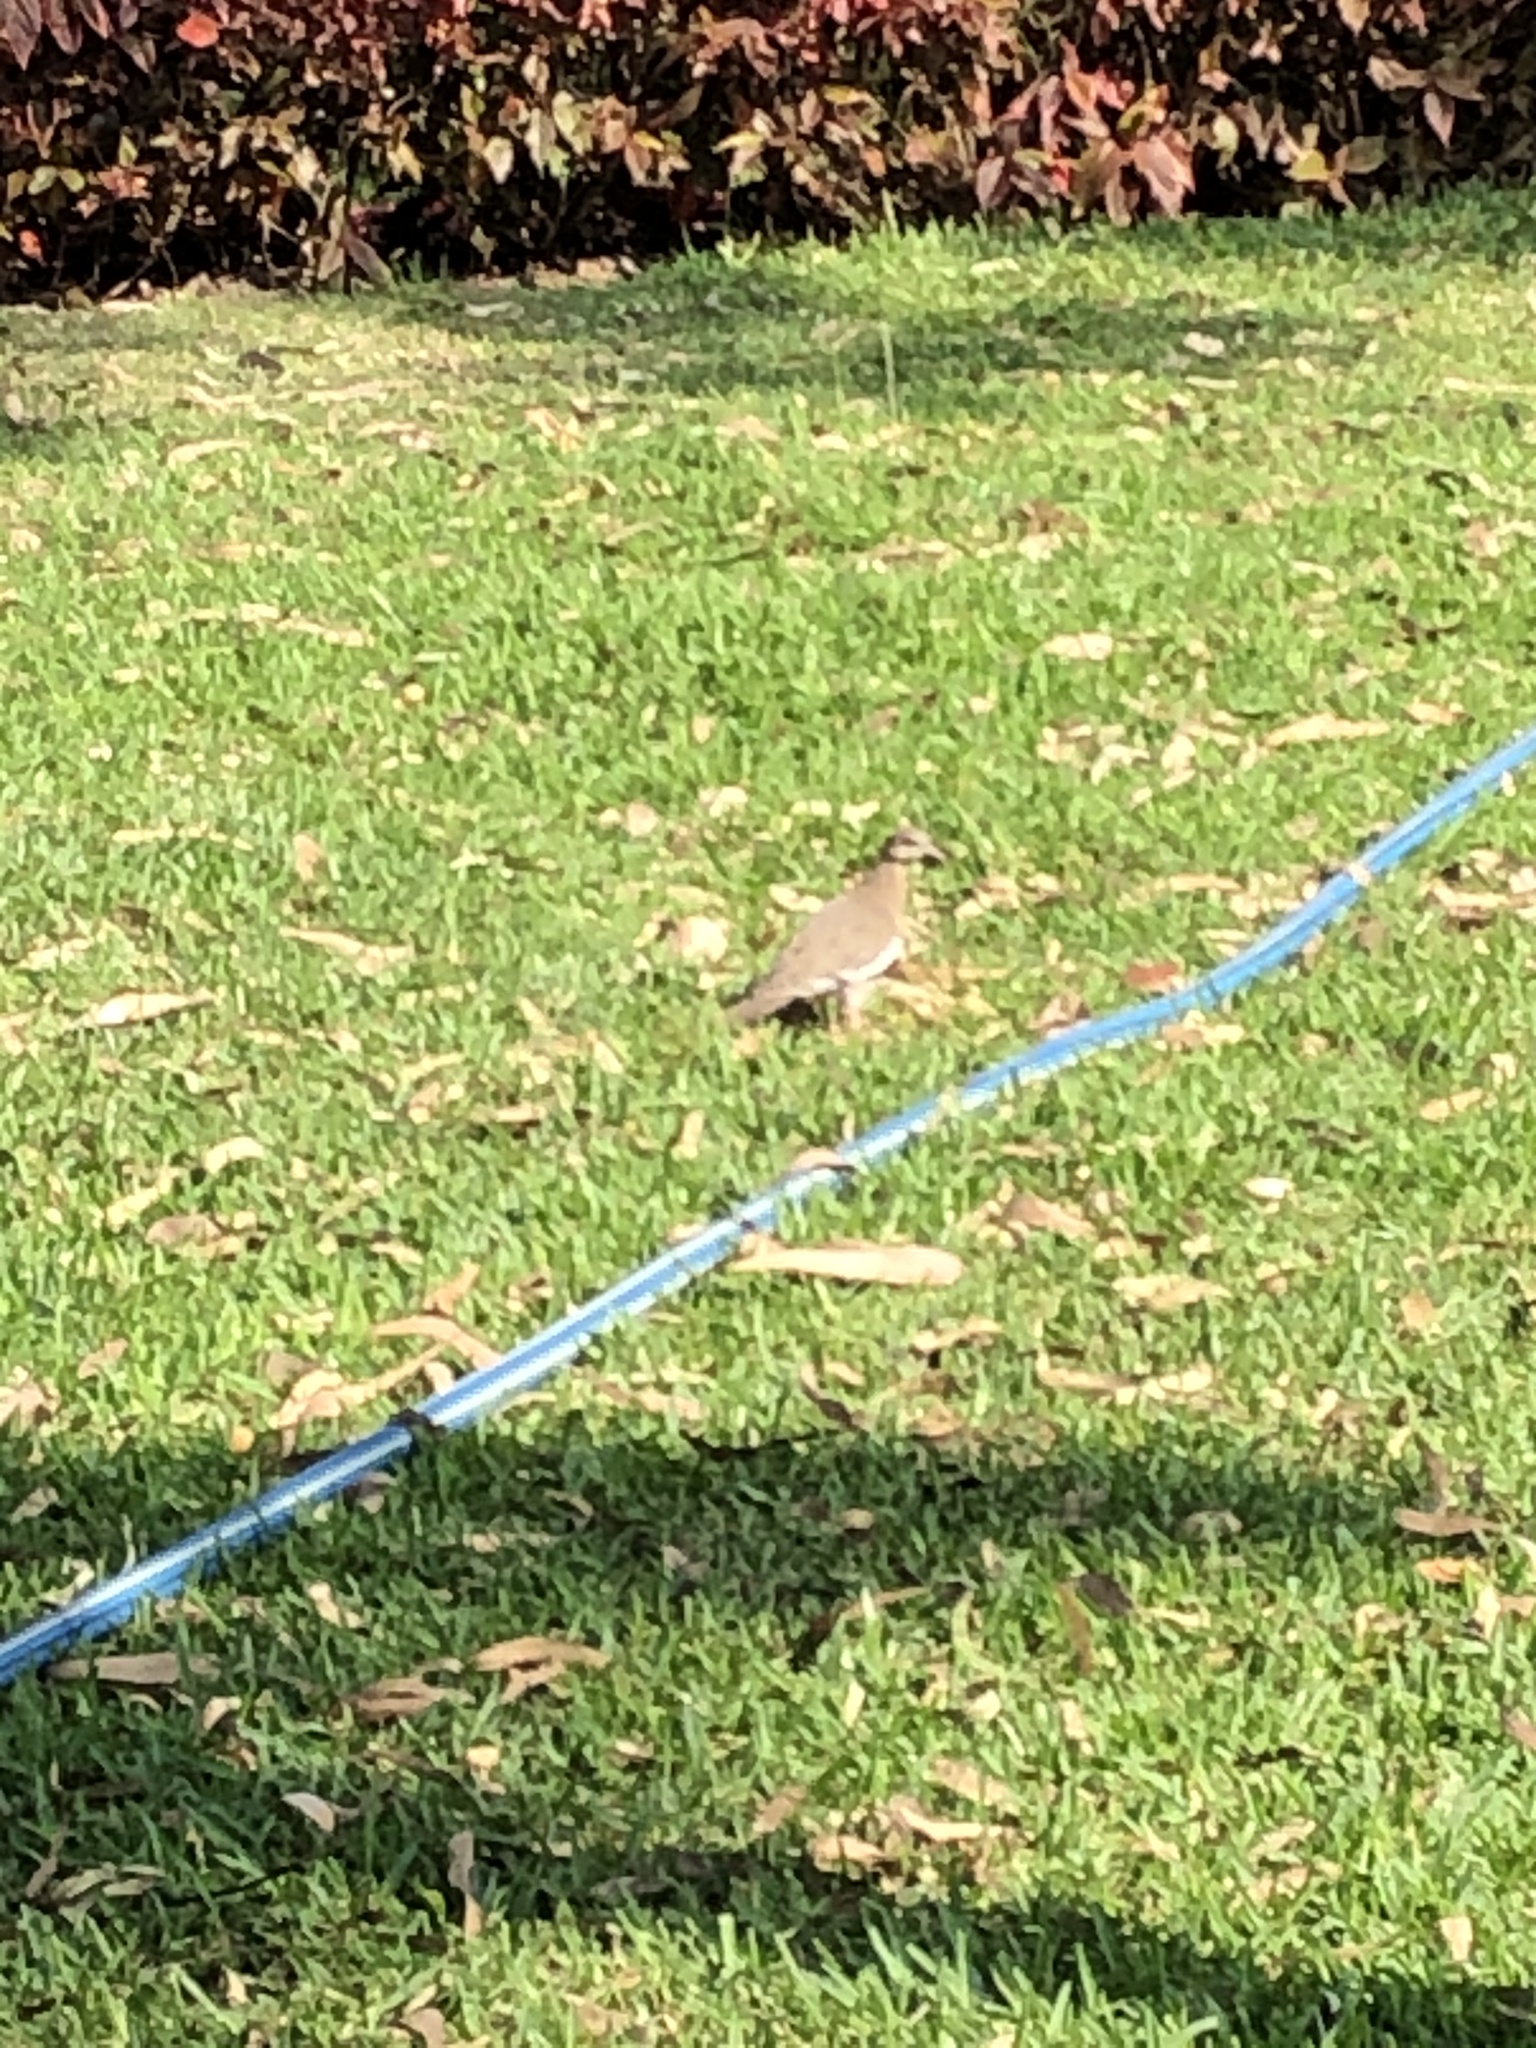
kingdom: Animalia
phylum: Chordata
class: Aves
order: Columbiformes
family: Columbidae
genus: Zenaida
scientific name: Zenaida meloda
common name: West peruvian dove
